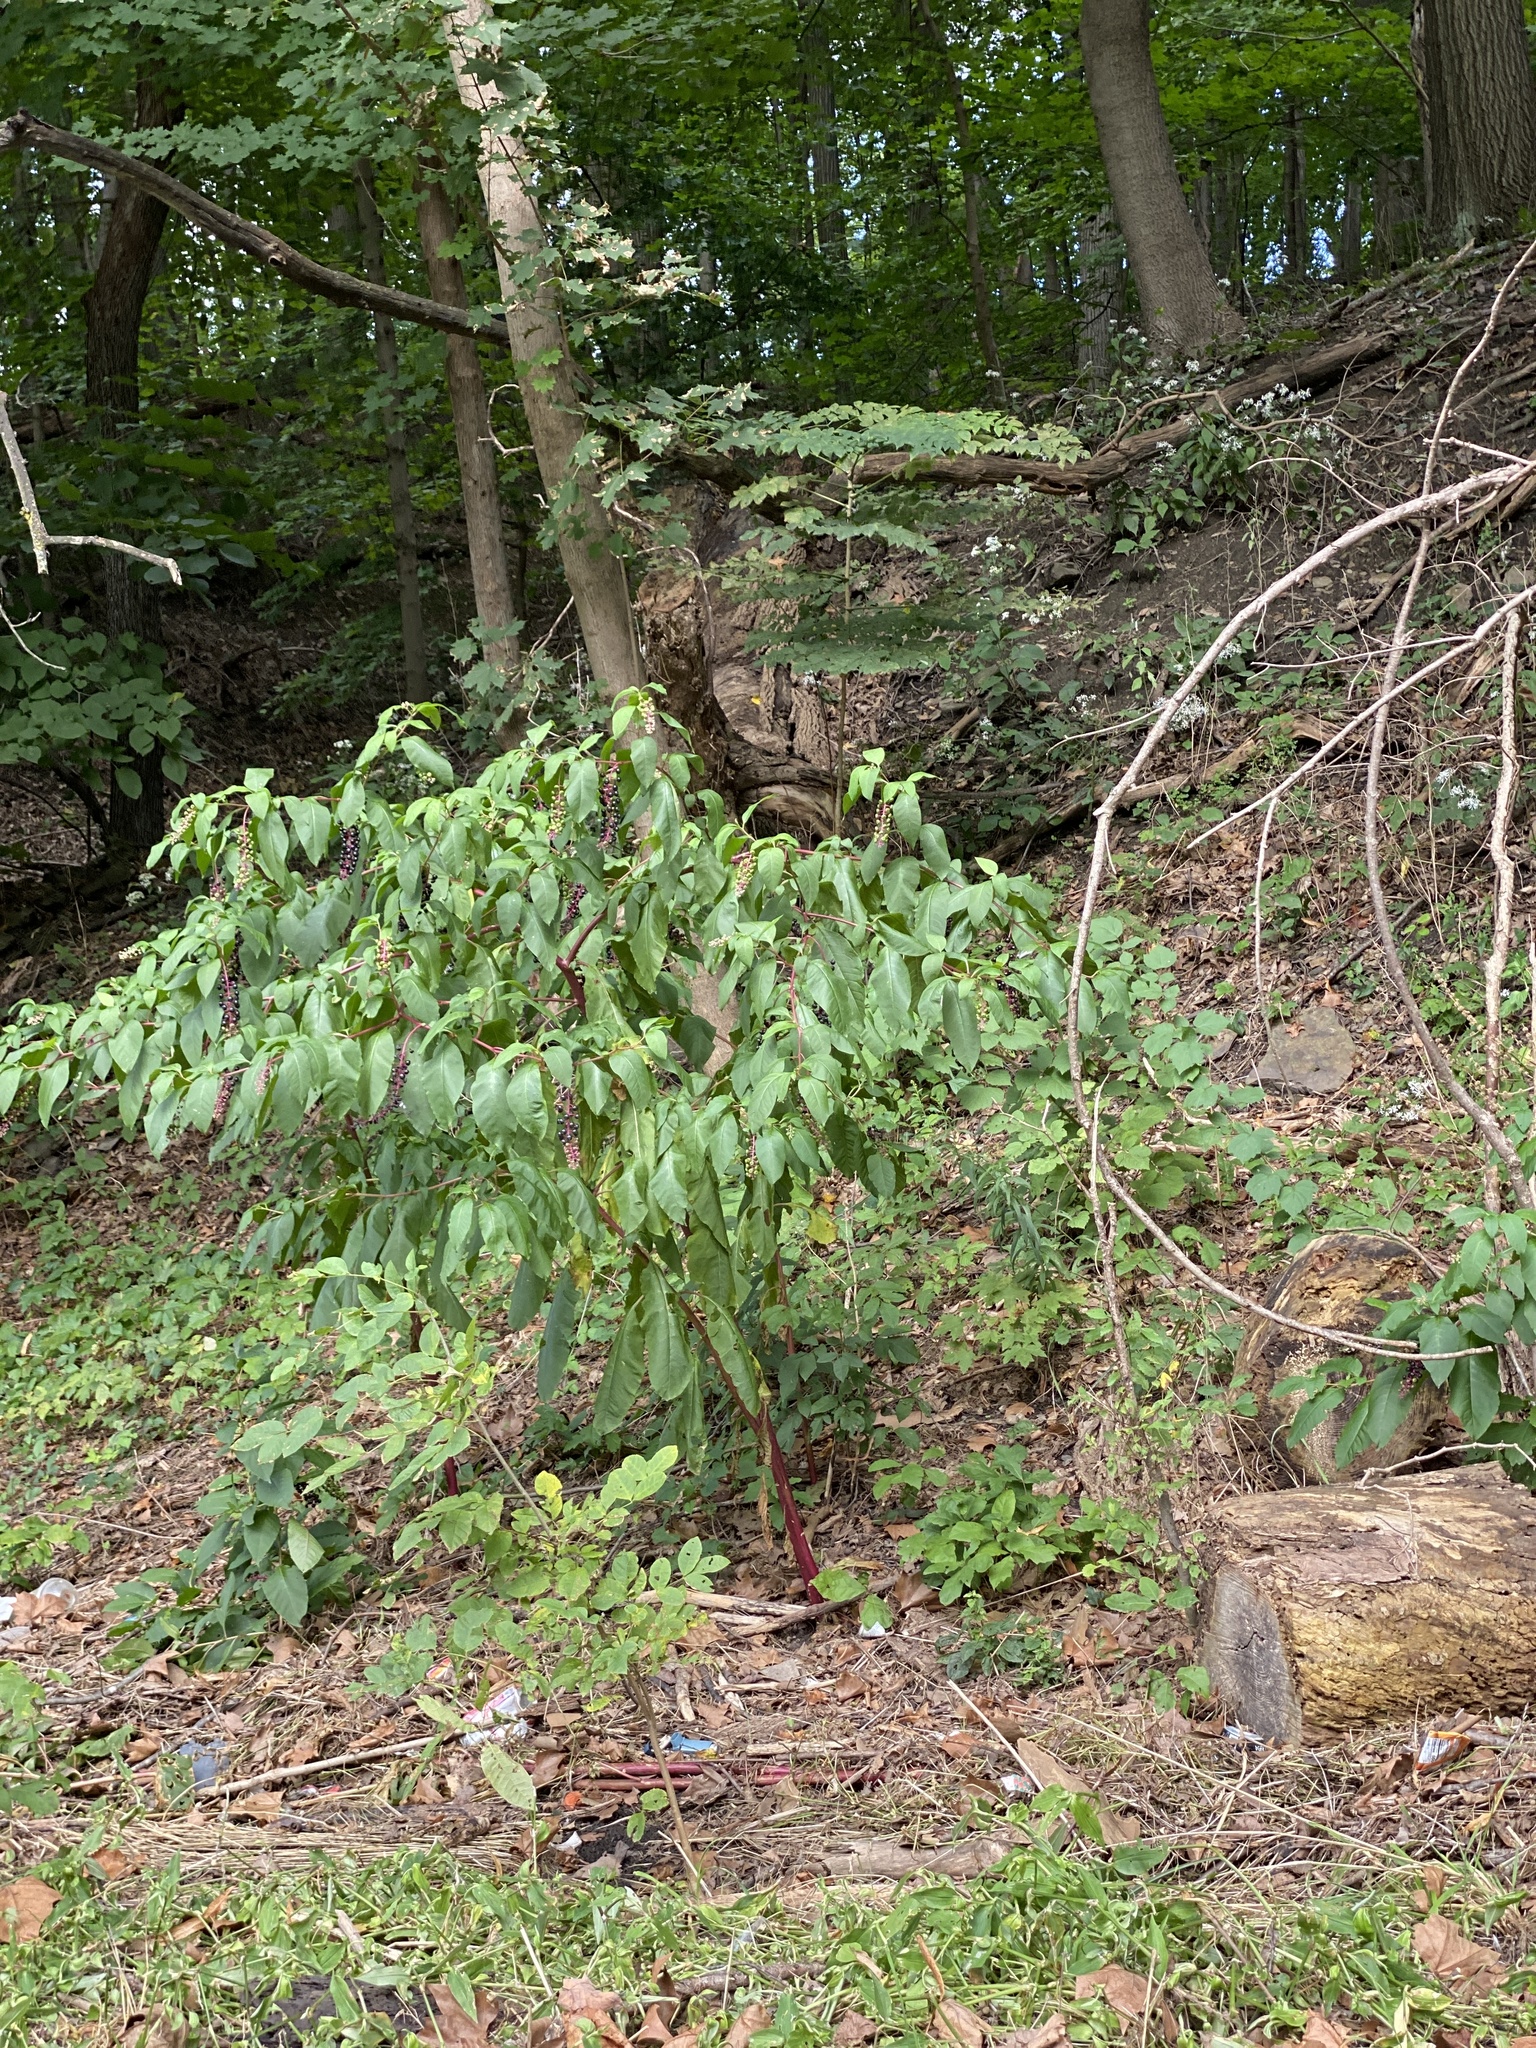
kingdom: Plantae
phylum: Tracheophyta
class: Magnoliopsida
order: Caryophyllales
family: Phytolaccaceae
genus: Phytolacca
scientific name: Phytolacca americana
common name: American pokeweed
